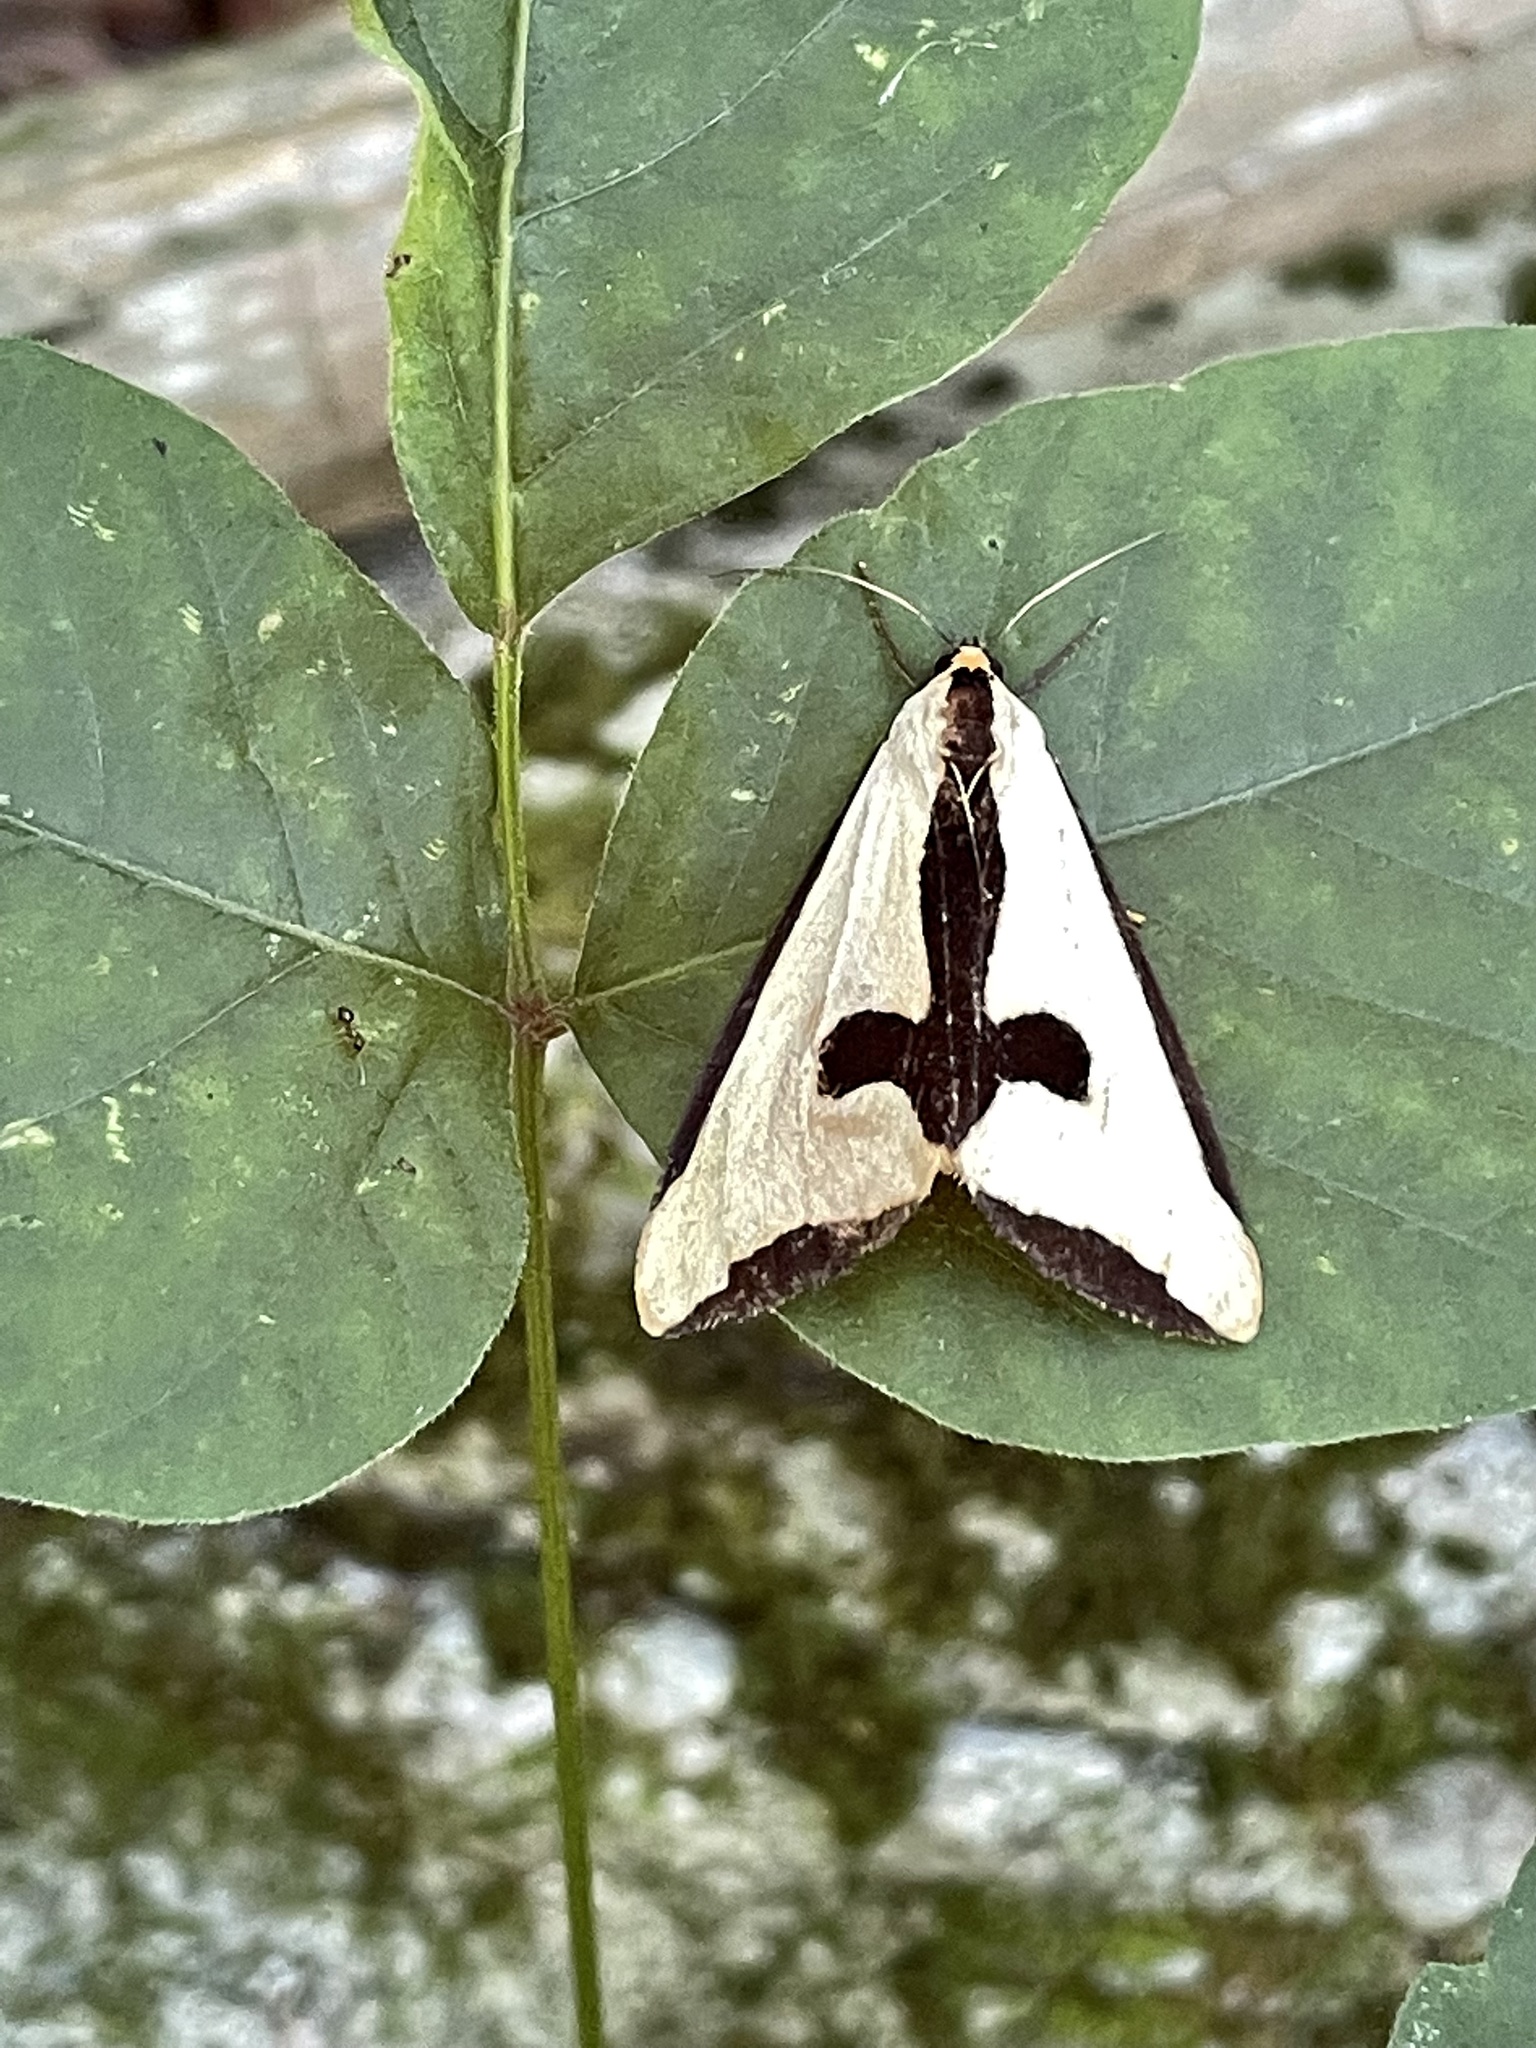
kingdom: Animalia
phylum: Arthropoda
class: Insecta
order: Lepidoptera
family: Erebidae
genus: Haploa
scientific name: Haploa clymene
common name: Clymene moth
